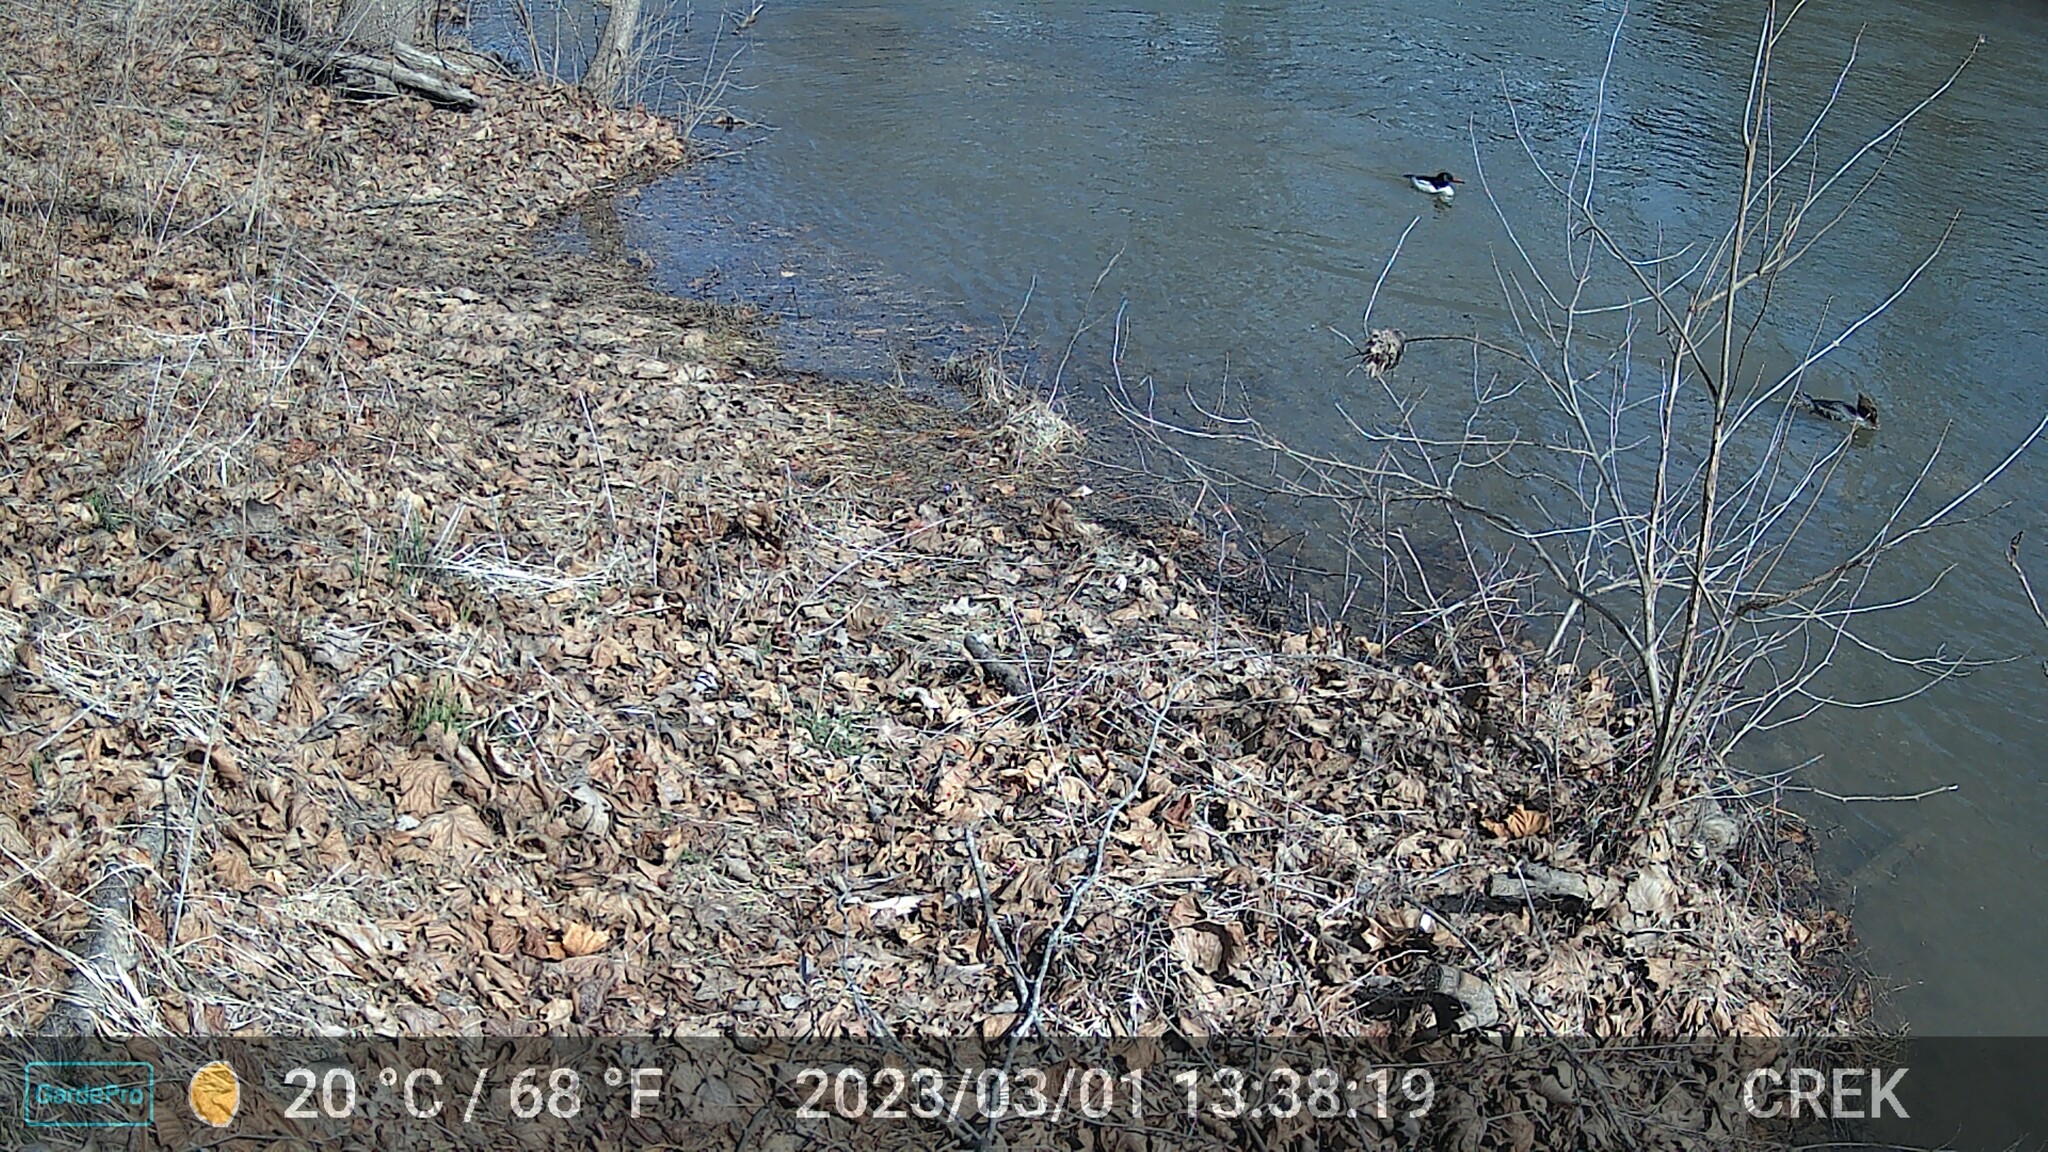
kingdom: Animalia
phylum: Chordata
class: Aves
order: Anseriformes
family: Anatidae
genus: Mergus
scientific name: Mergus merganser
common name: Common merganser
